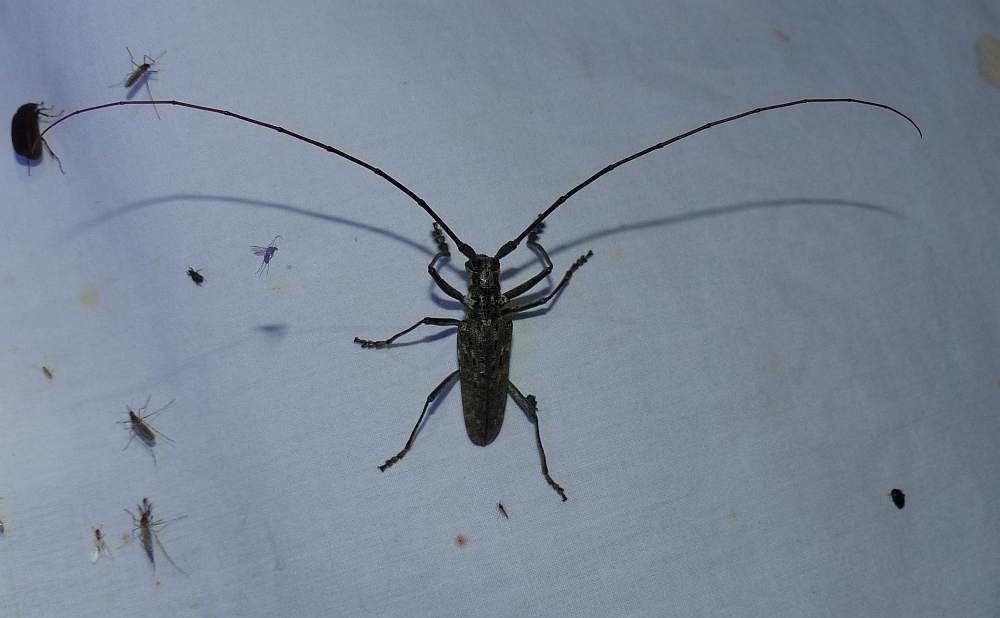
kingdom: Animalia
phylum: Arthropoda
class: Insecta
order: Coleoptera
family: Cerambycidae
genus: Monochamus
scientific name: Monochamus notatus
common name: Northeastern pine sawyer beetle
